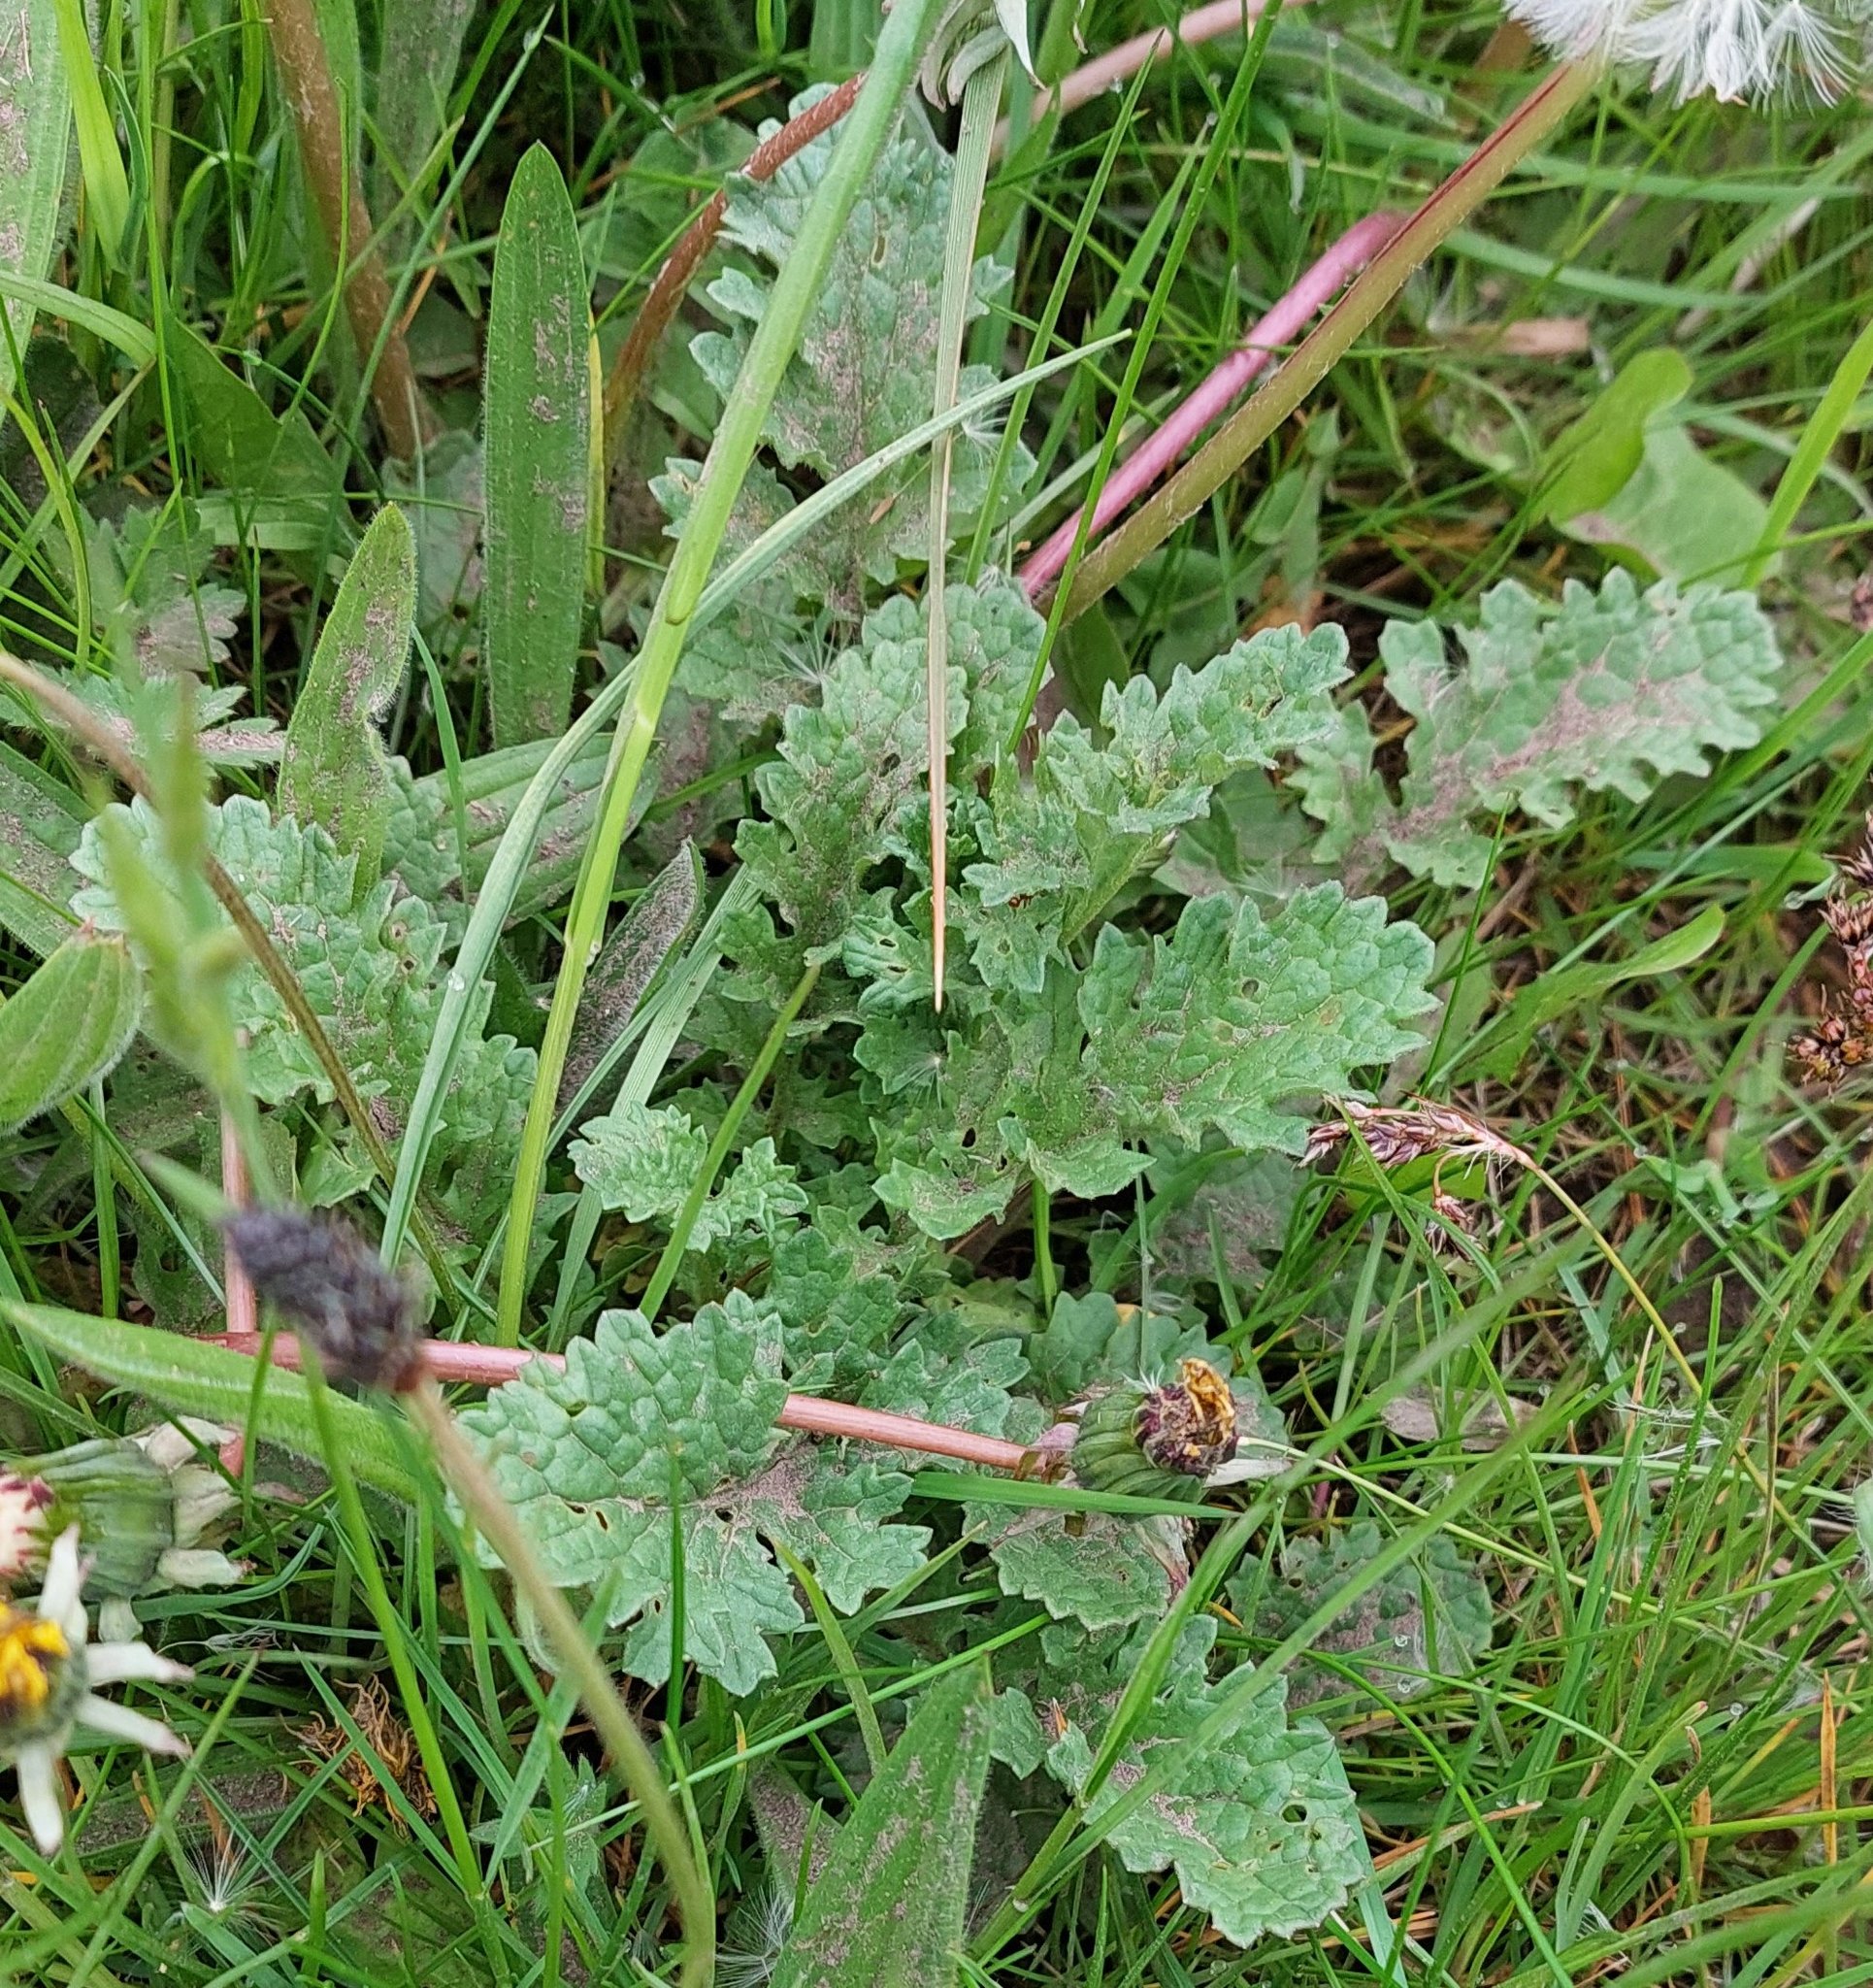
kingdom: Plantae
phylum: Tracheophyta
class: Magnoliopsida
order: Asterales
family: Asteraceae
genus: Jacobaea
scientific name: Jacobaea vulgaris
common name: Stinking willie
